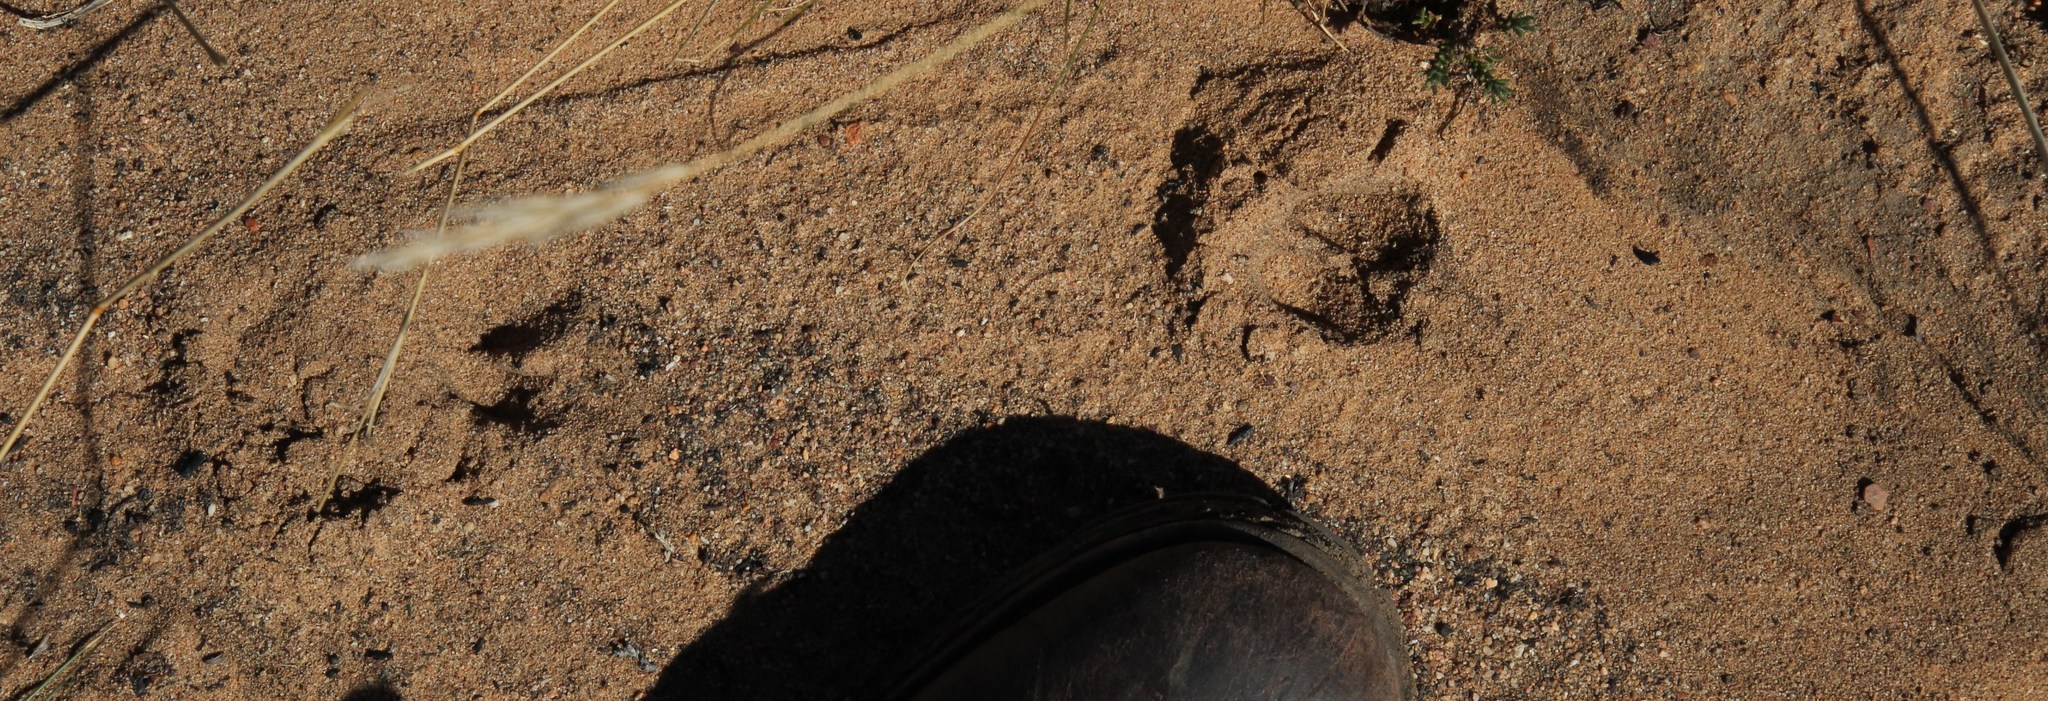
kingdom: Animalia
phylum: Chordata
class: Mammalia
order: Artiodactyla
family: Bovidae
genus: Oreotragus
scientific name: Oreotragus oreotragus
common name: Klipspringer
